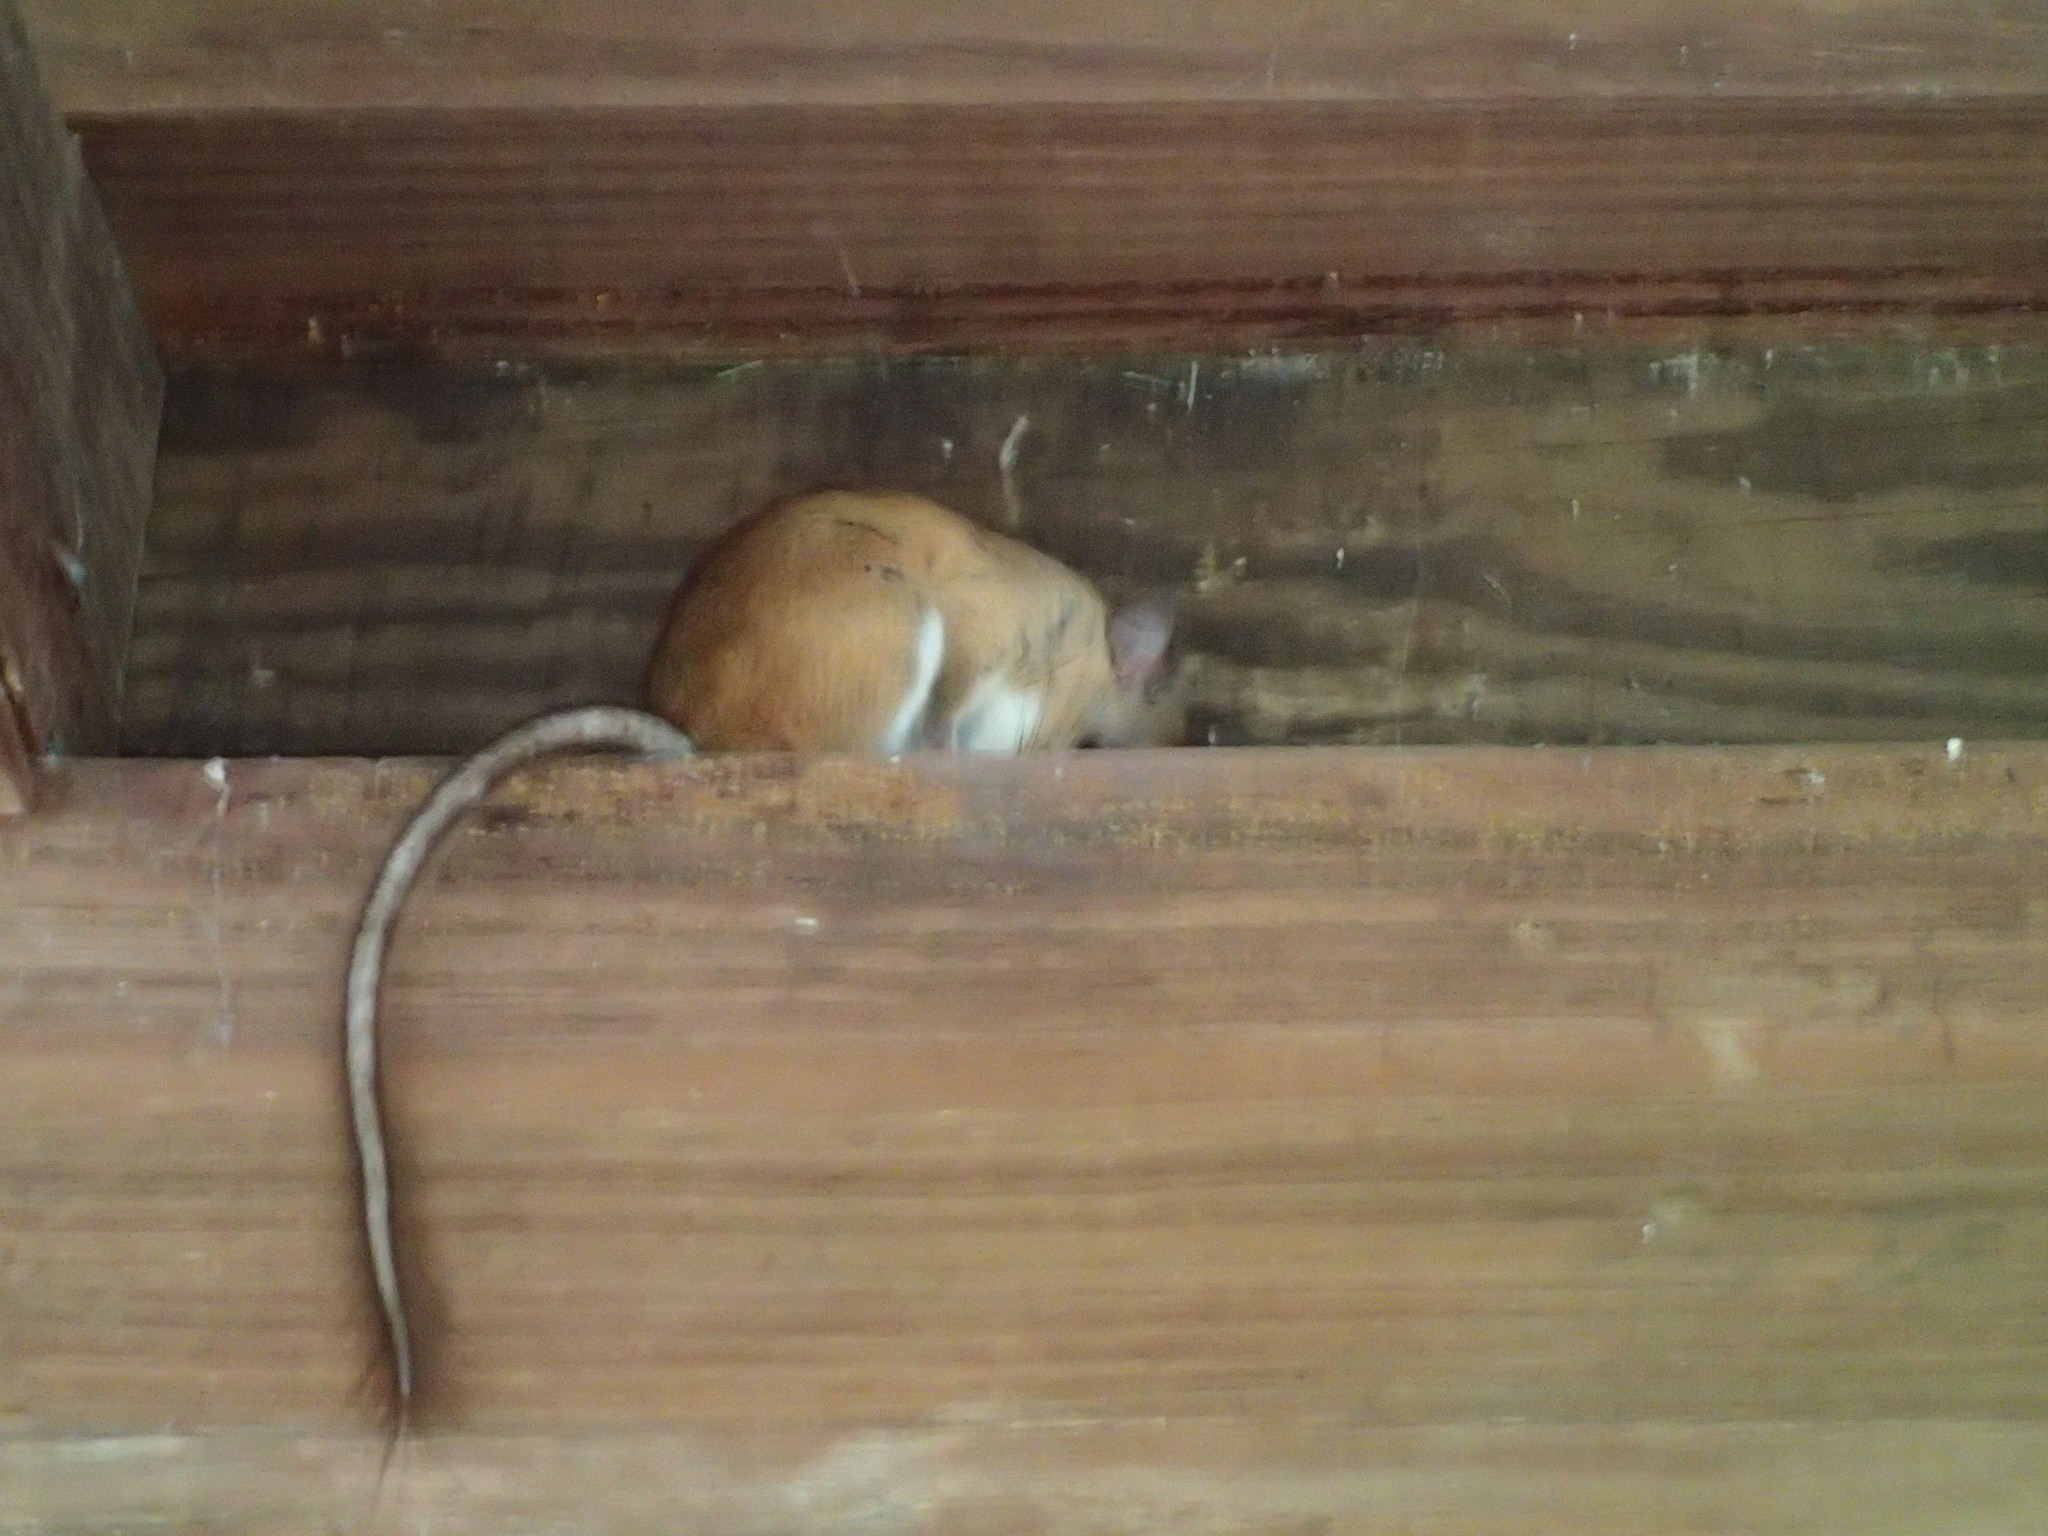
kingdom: Animalia
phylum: Chordata
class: Mammalia
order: Rodentia
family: Cricetidae
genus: Nyctomys
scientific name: Nyctomys sumichrasti
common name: Vesper rat
